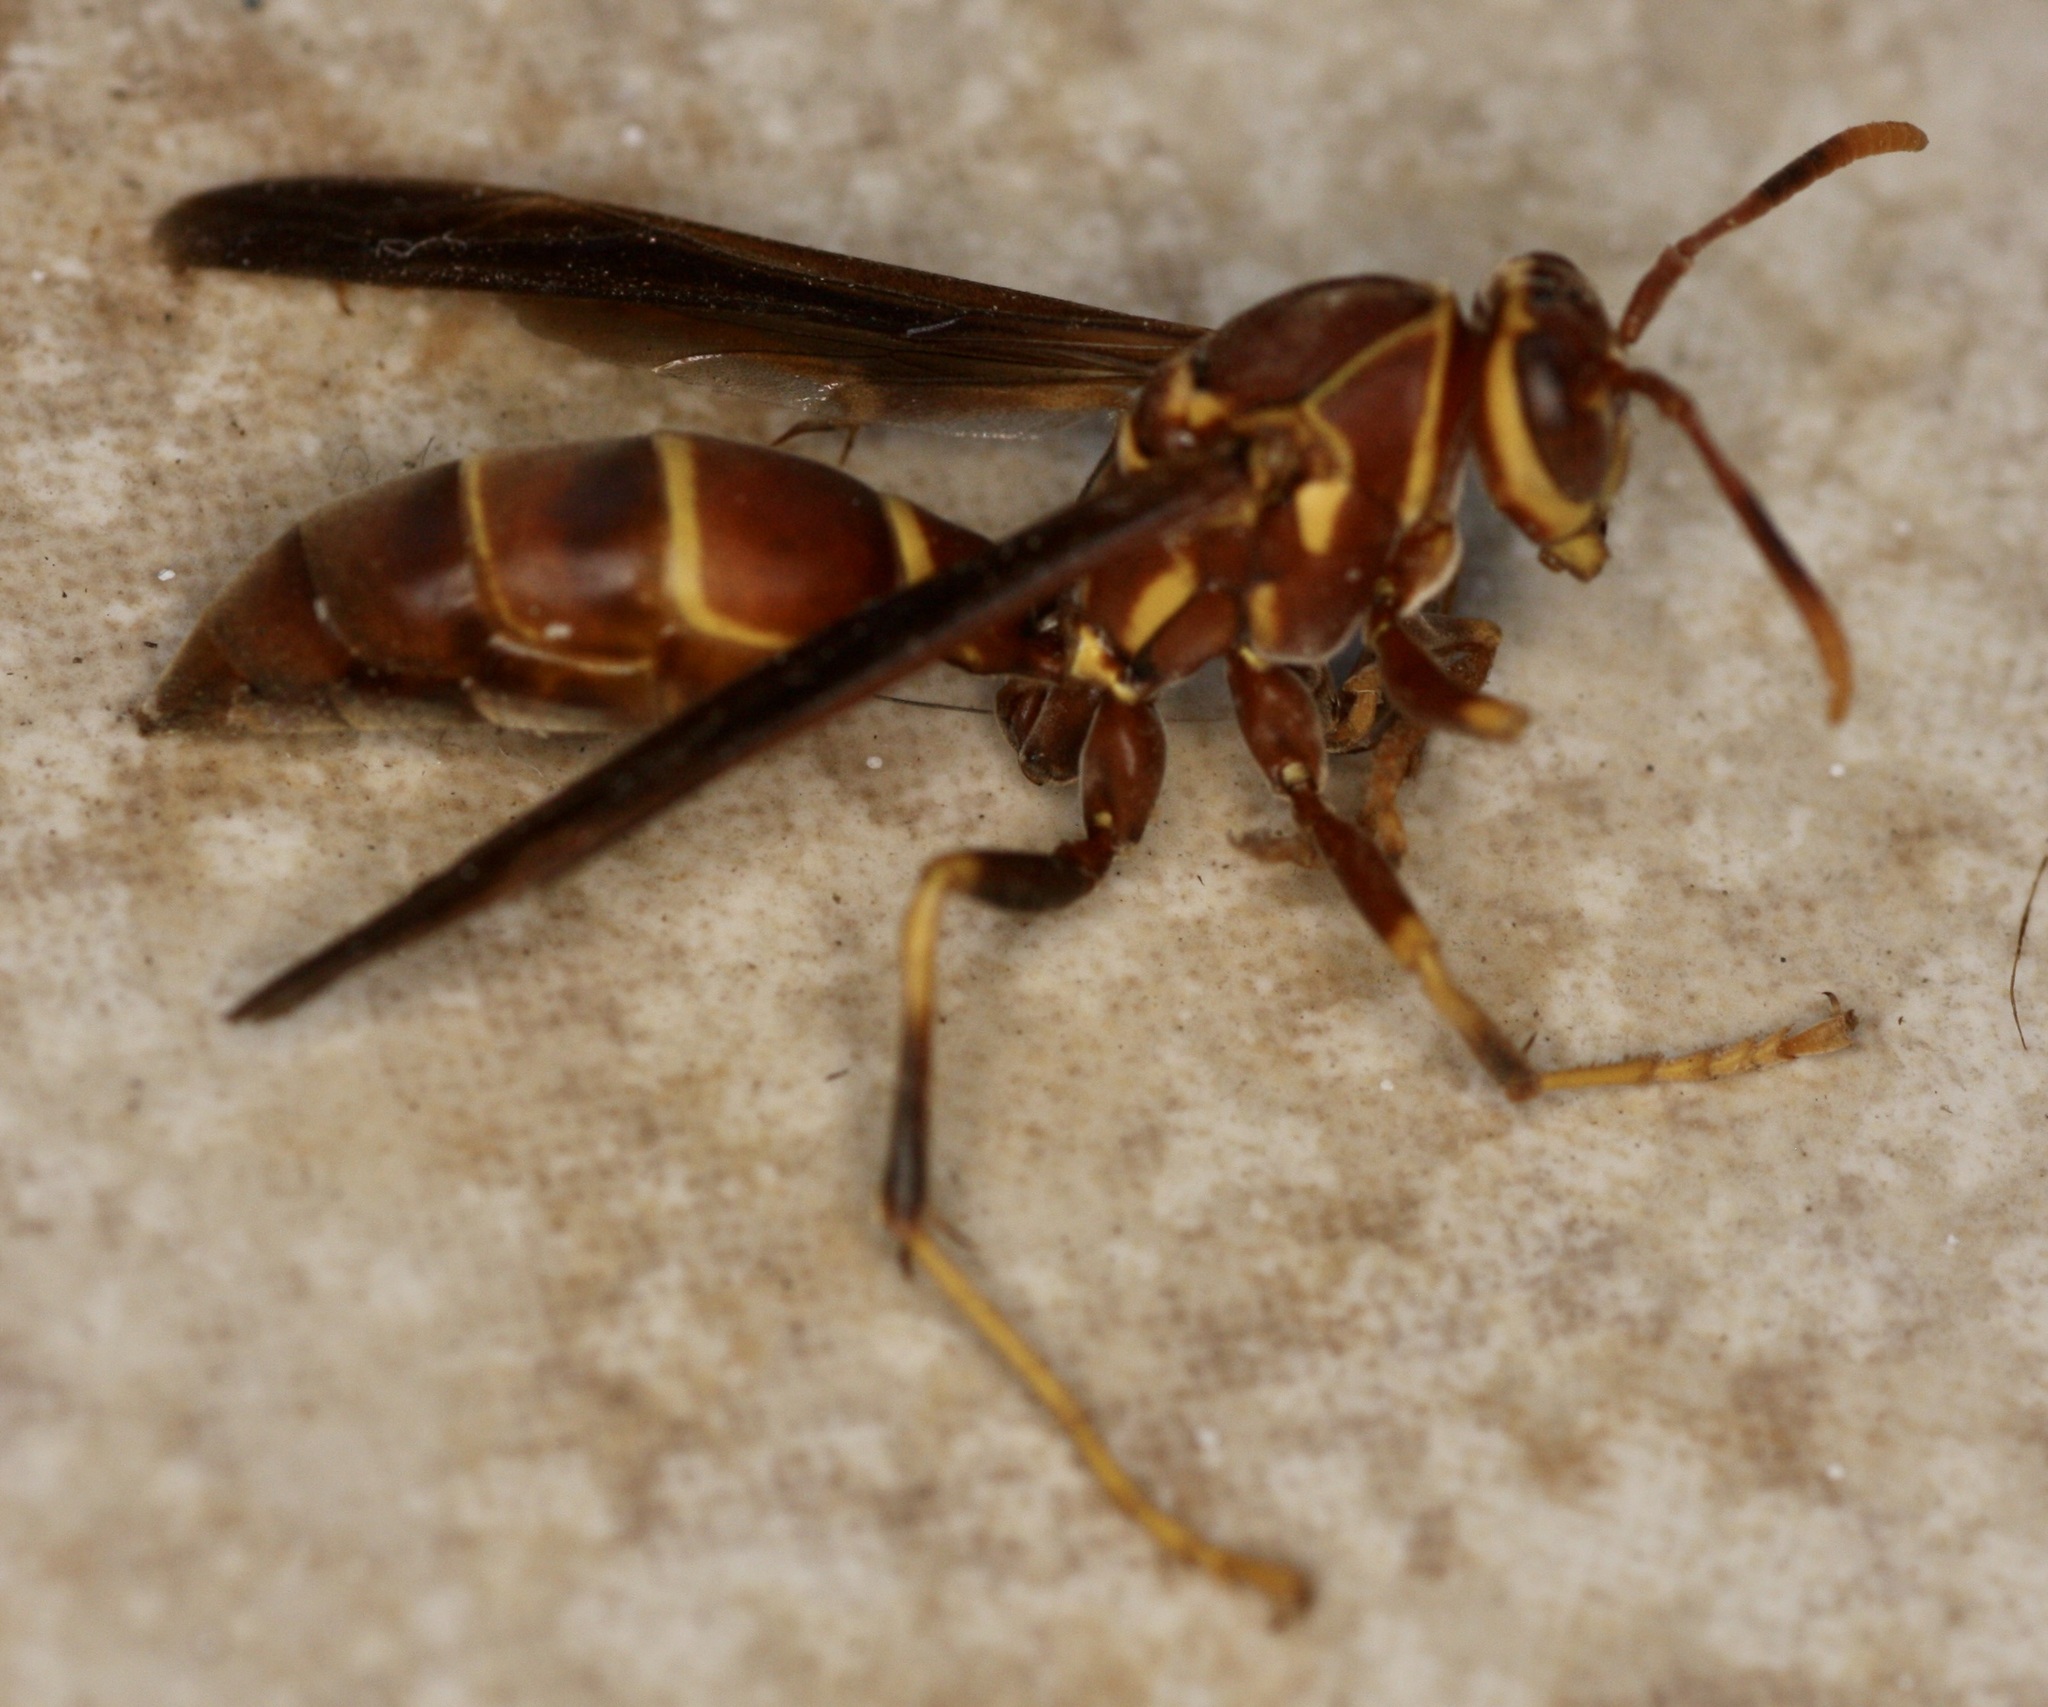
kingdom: Animalia
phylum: Arthropoda
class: Insecta
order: Hymenoptera
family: Eumenidae
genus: Polistes
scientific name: Polistes arizonensis
